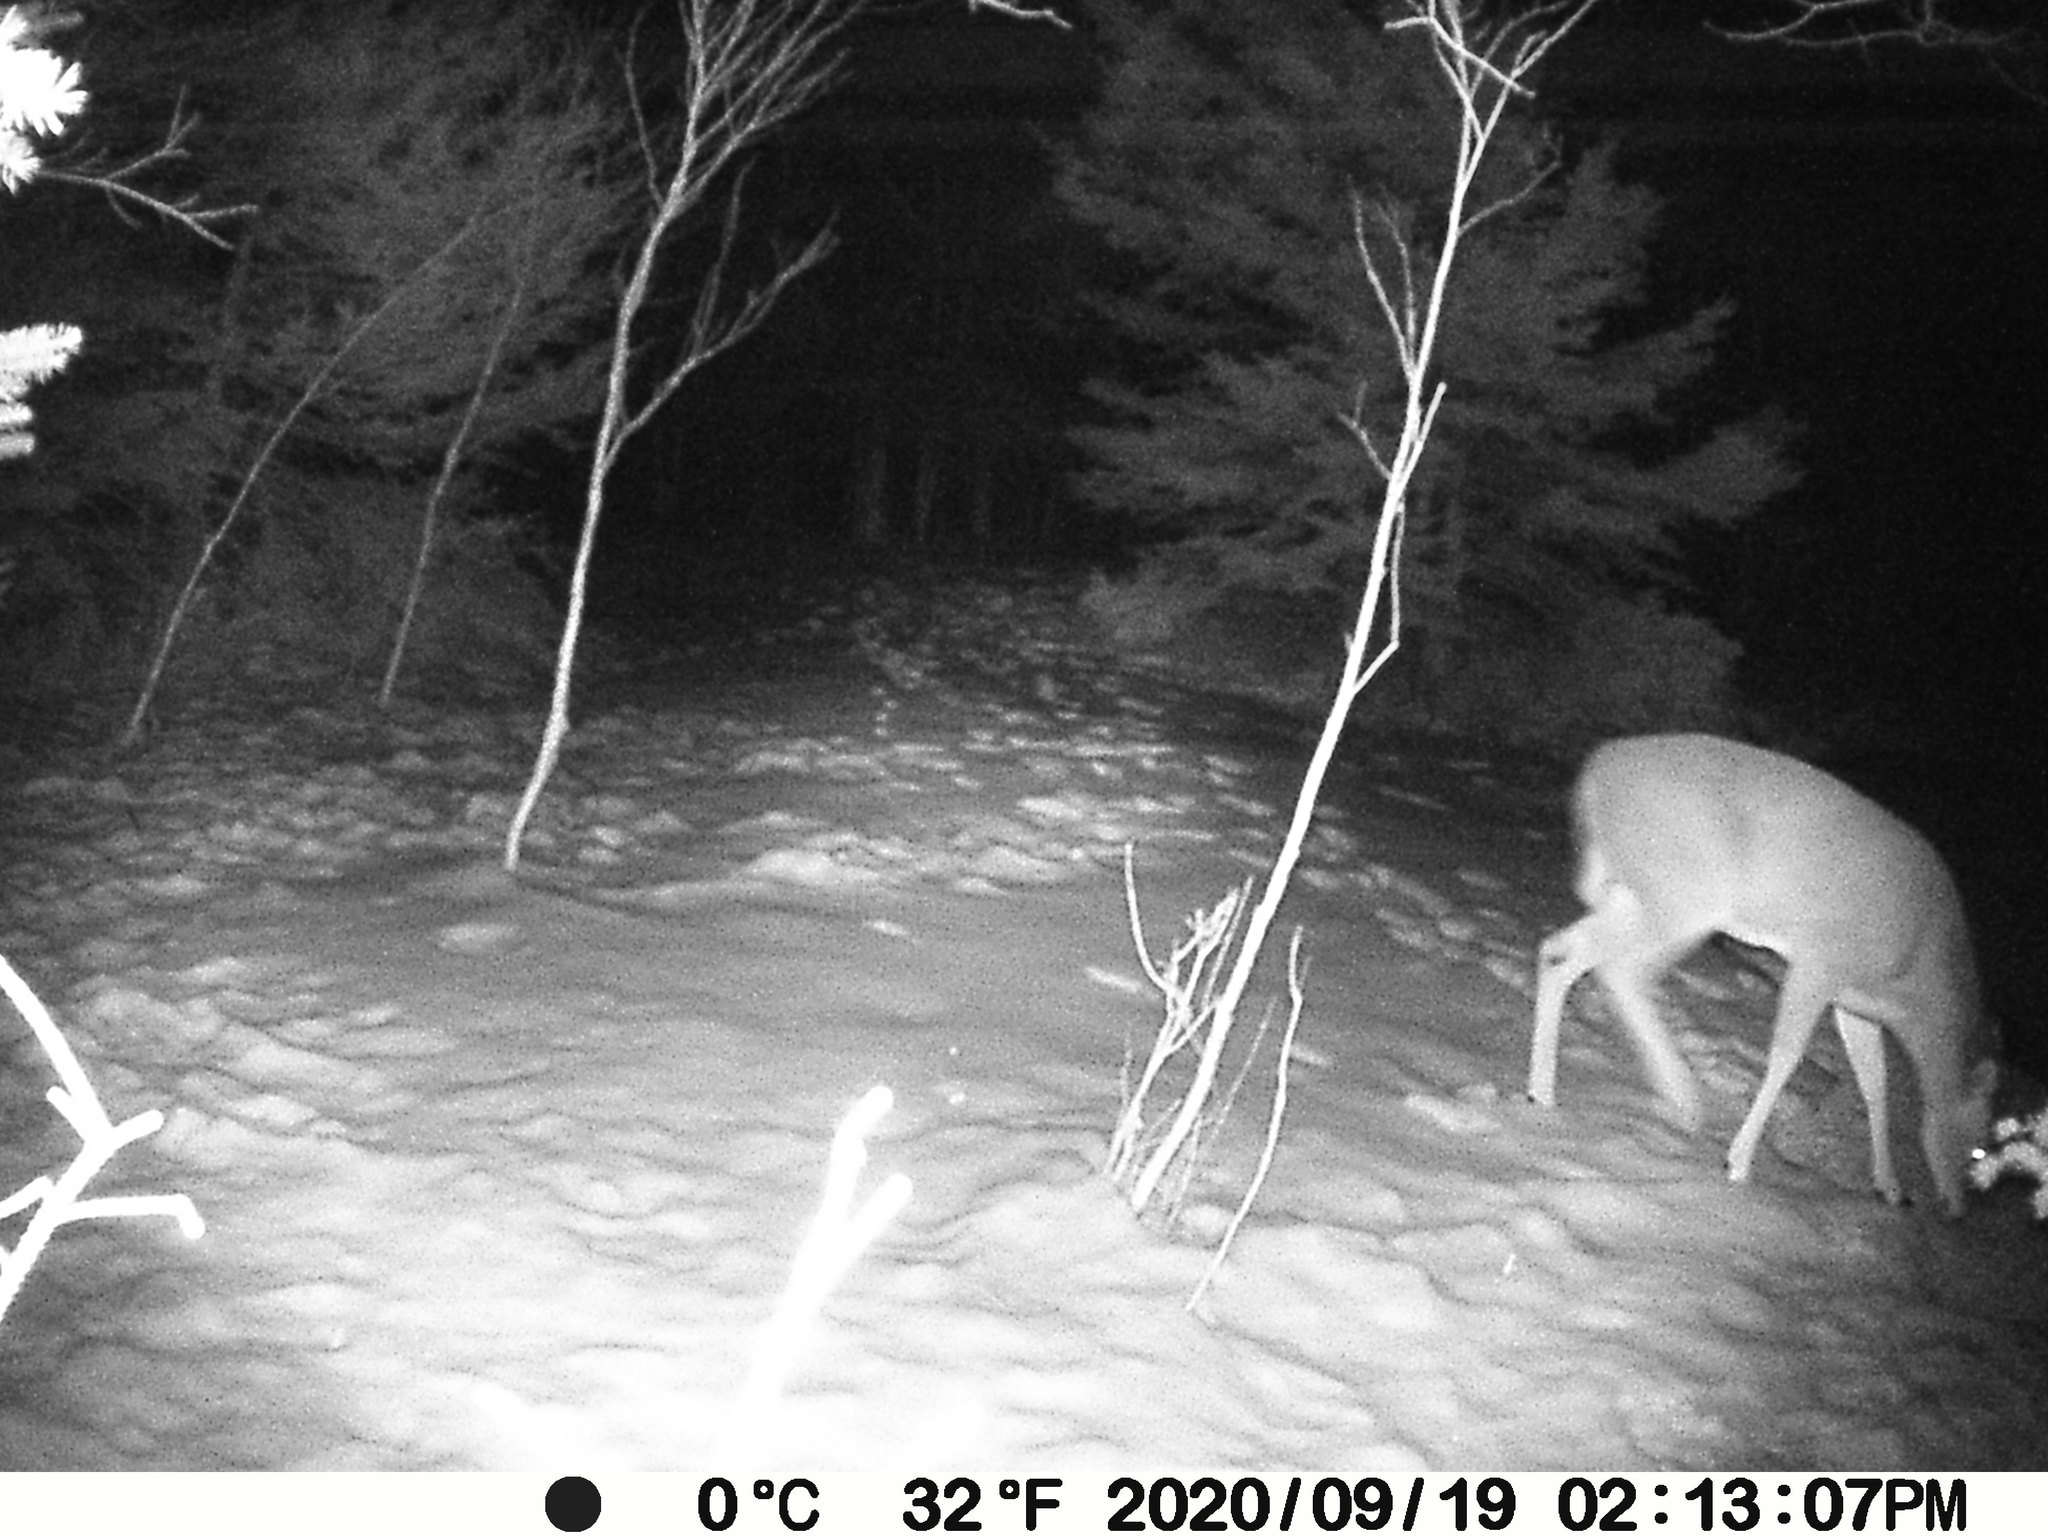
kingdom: Animalia
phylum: Chordata
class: Mammalia
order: Artiodactyla
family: Cervidae
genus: Odocoileus
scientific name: Odocoileus virginianus
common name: White-tailed deer
